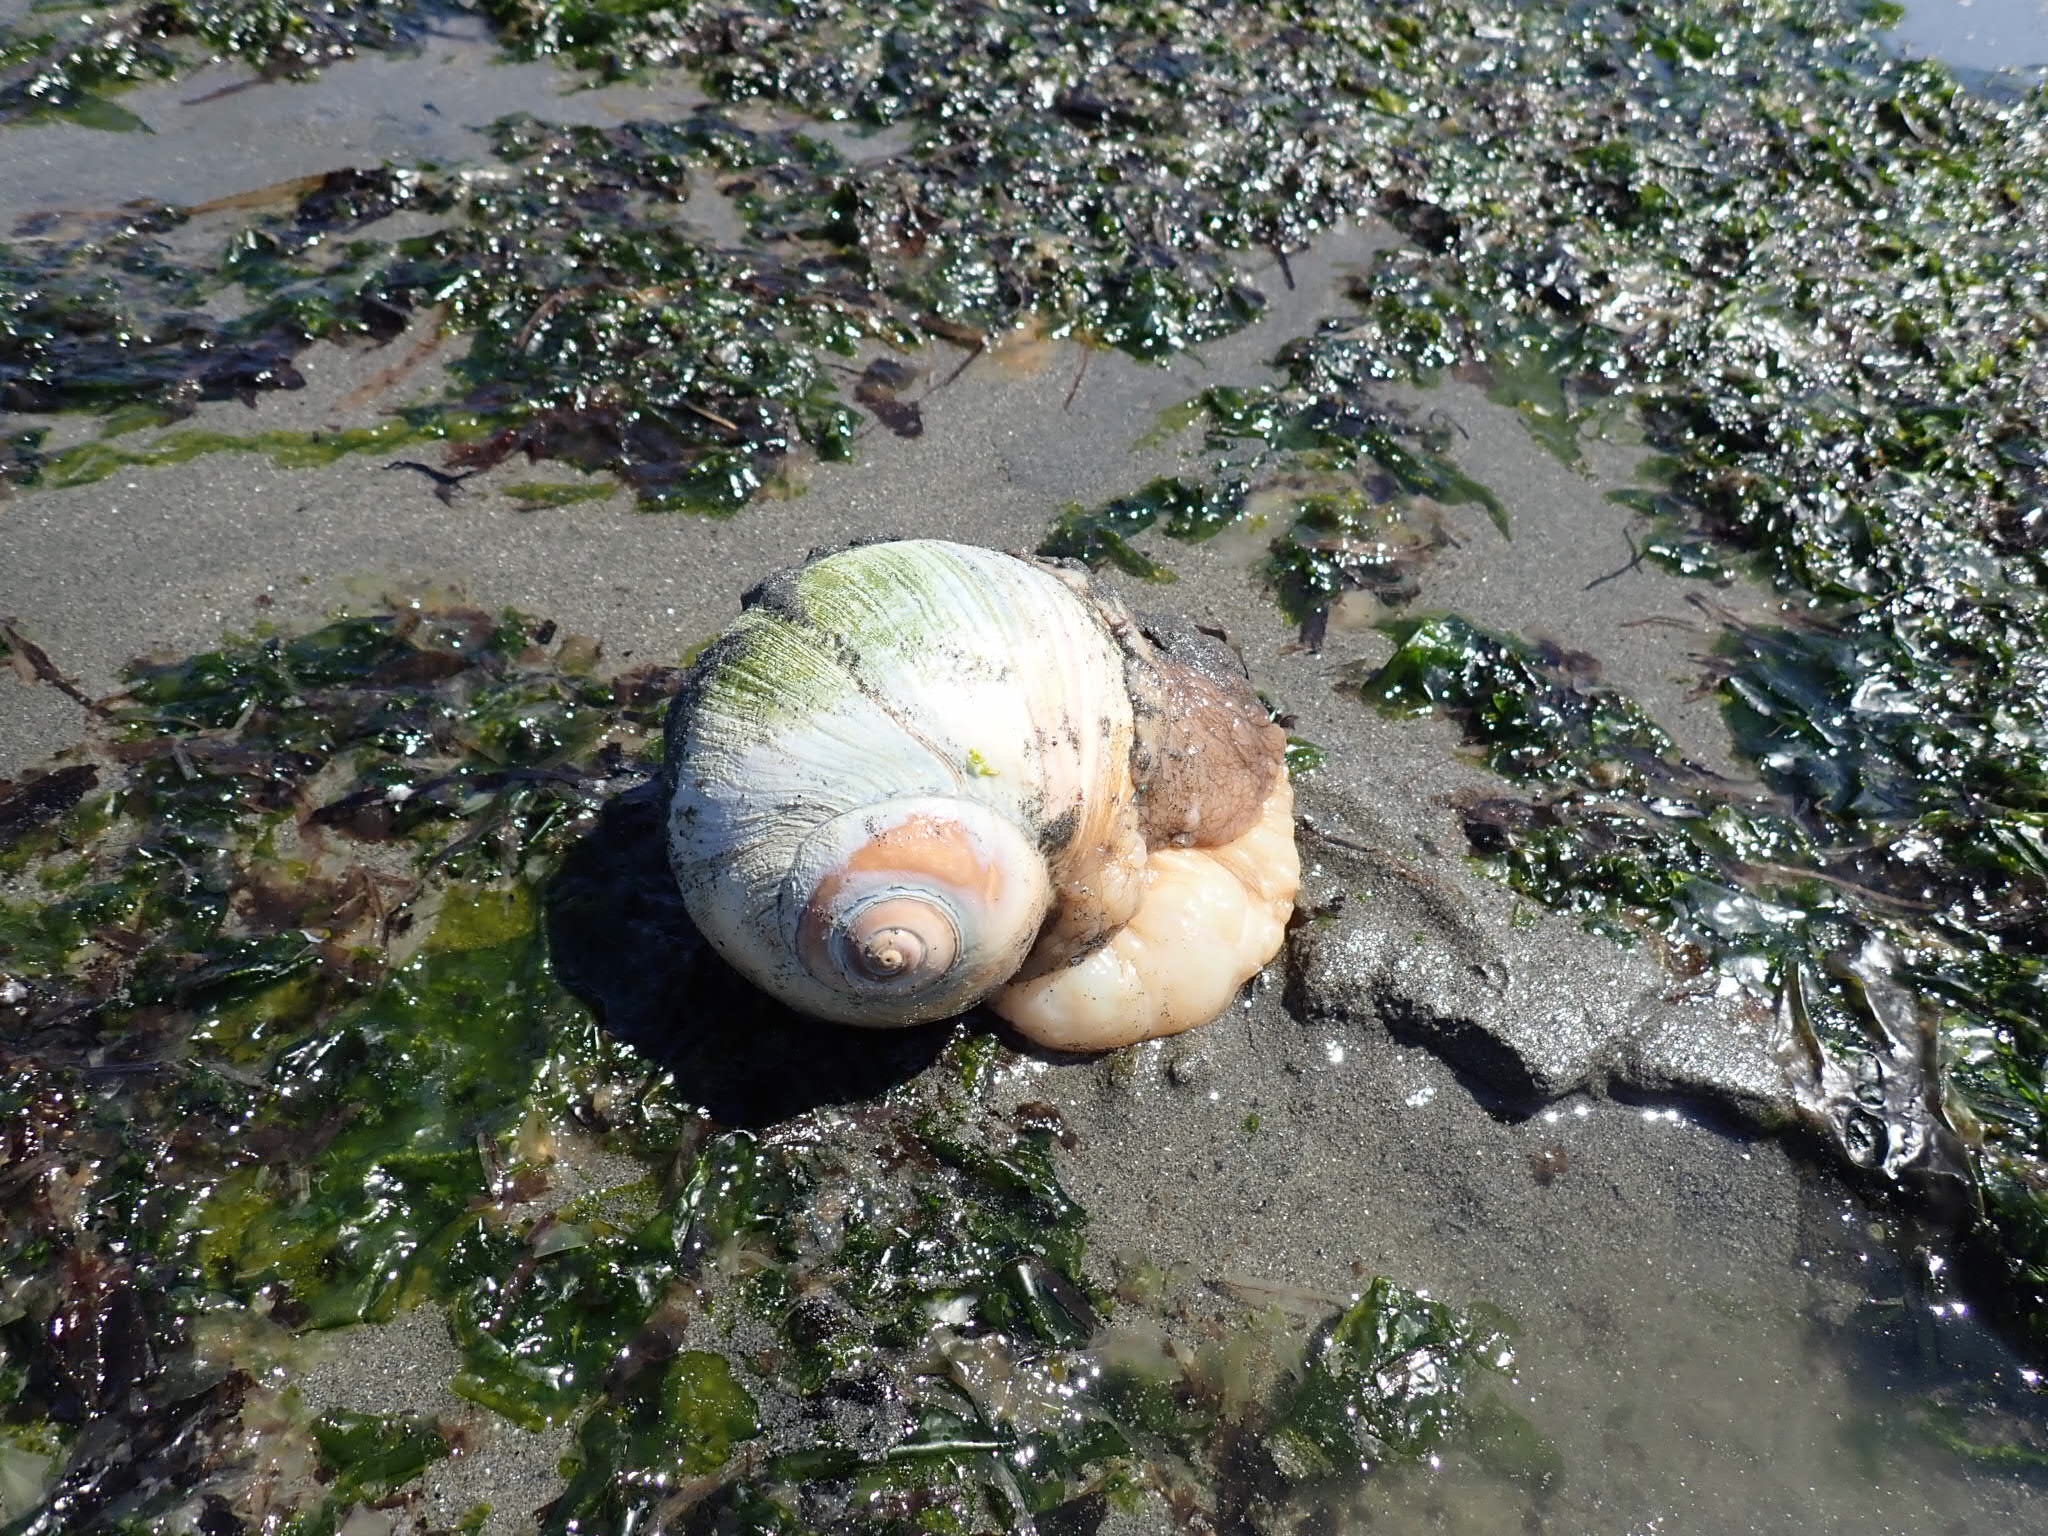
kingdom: Animalia
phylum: Mollusca
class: Gastropoda
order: Littorinimorpha
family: Naticidae
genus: Neverita
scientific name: Neverita lewisii
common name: Lewis' moonsnail
